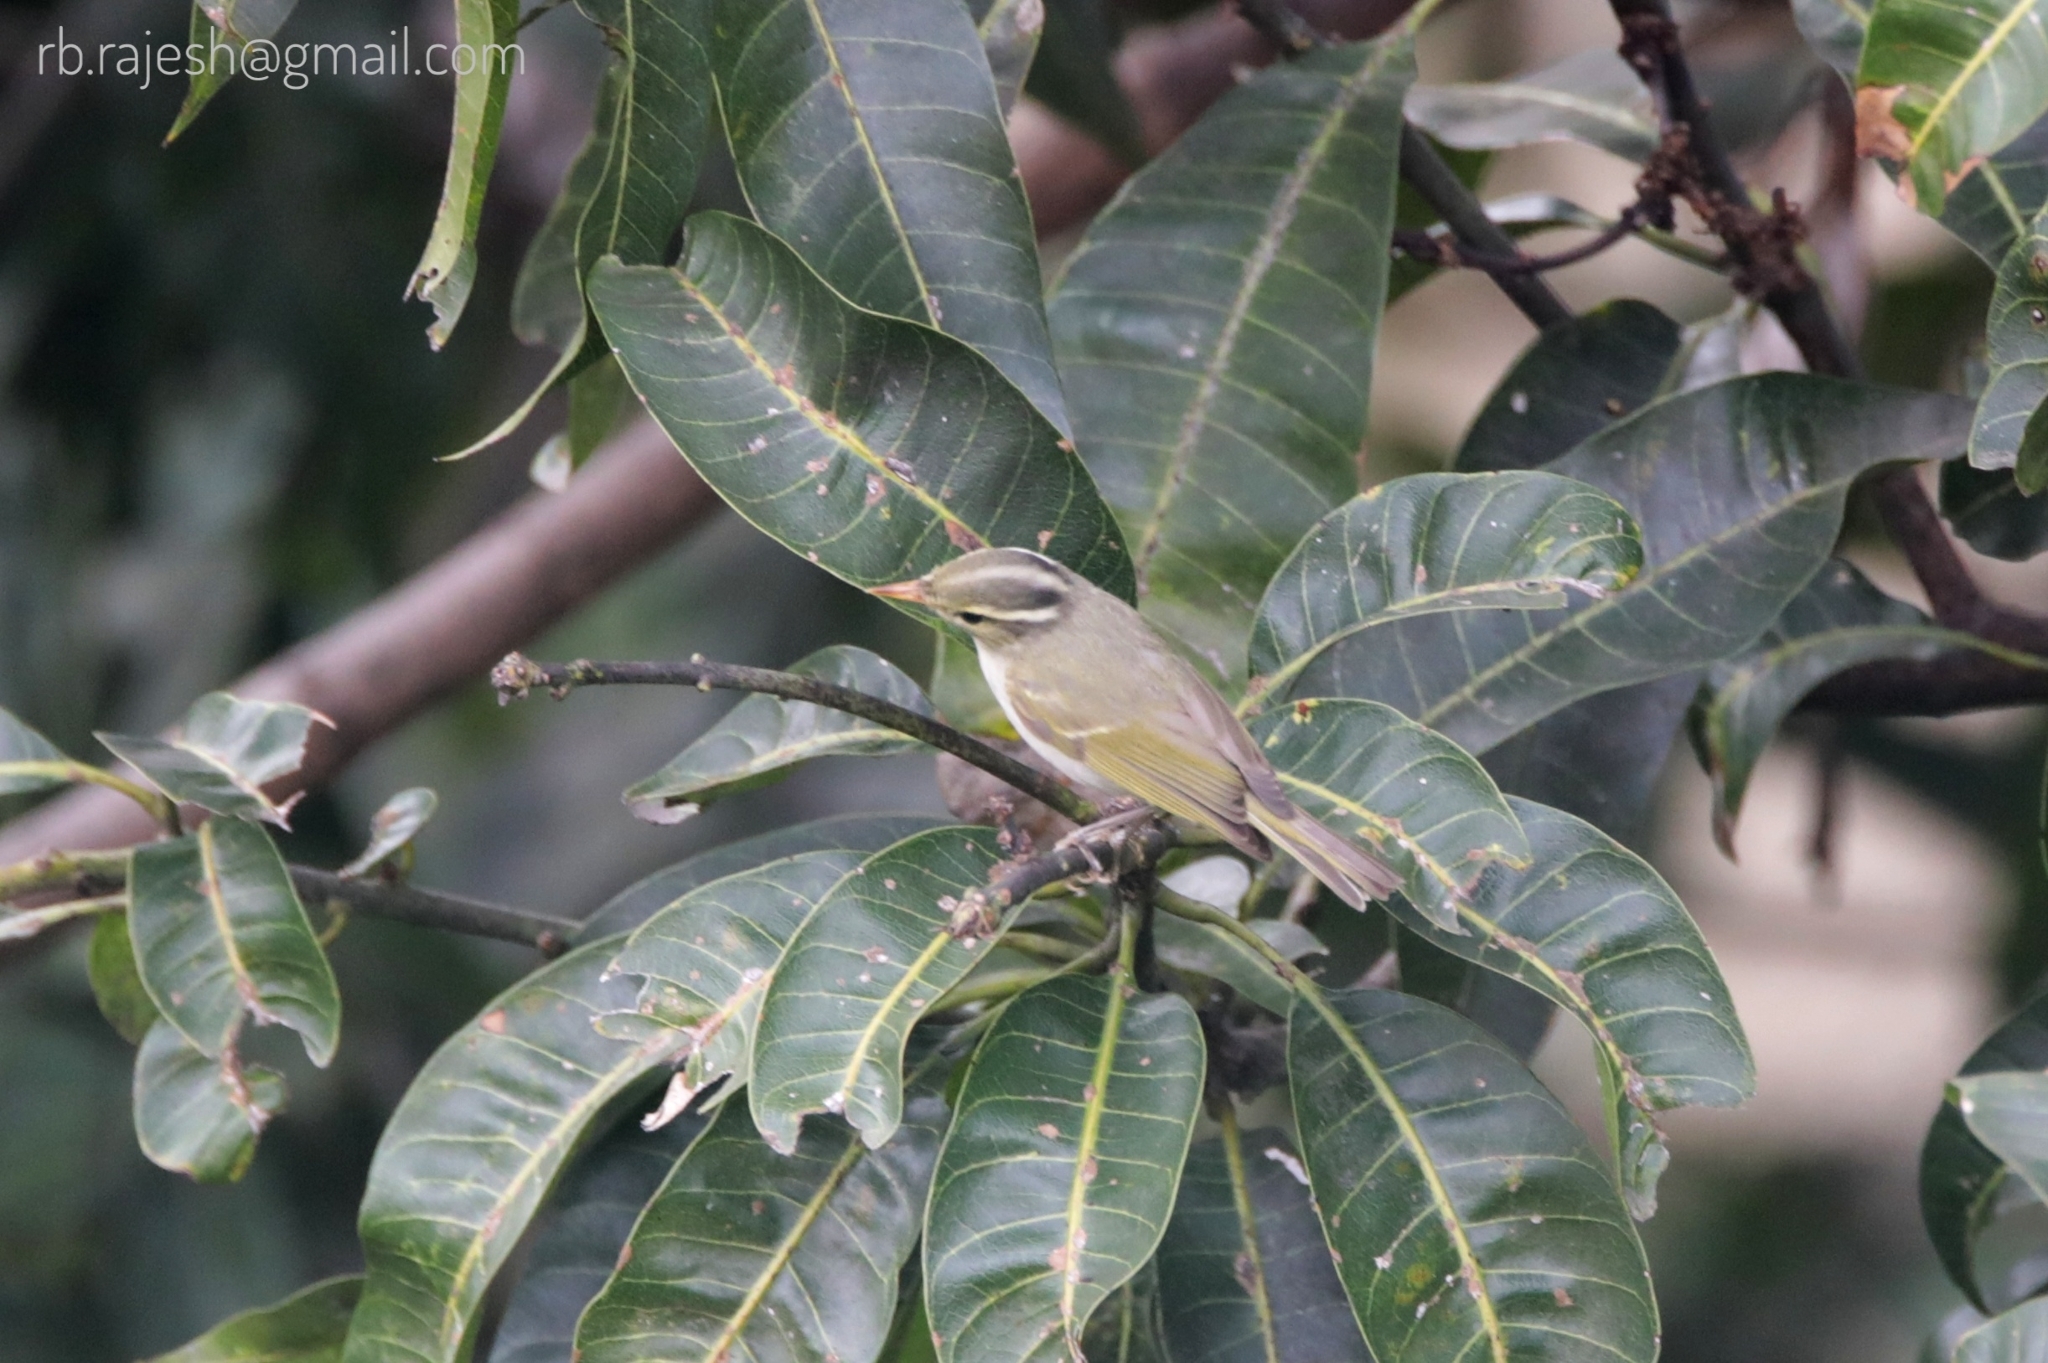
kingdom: Animalia
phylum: Chordata
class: Aves
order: Passeriformes
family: Phylloscopidae
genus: Phylloscopus
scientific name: Phylloscopus occipitalis
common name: Western crowned warbler
